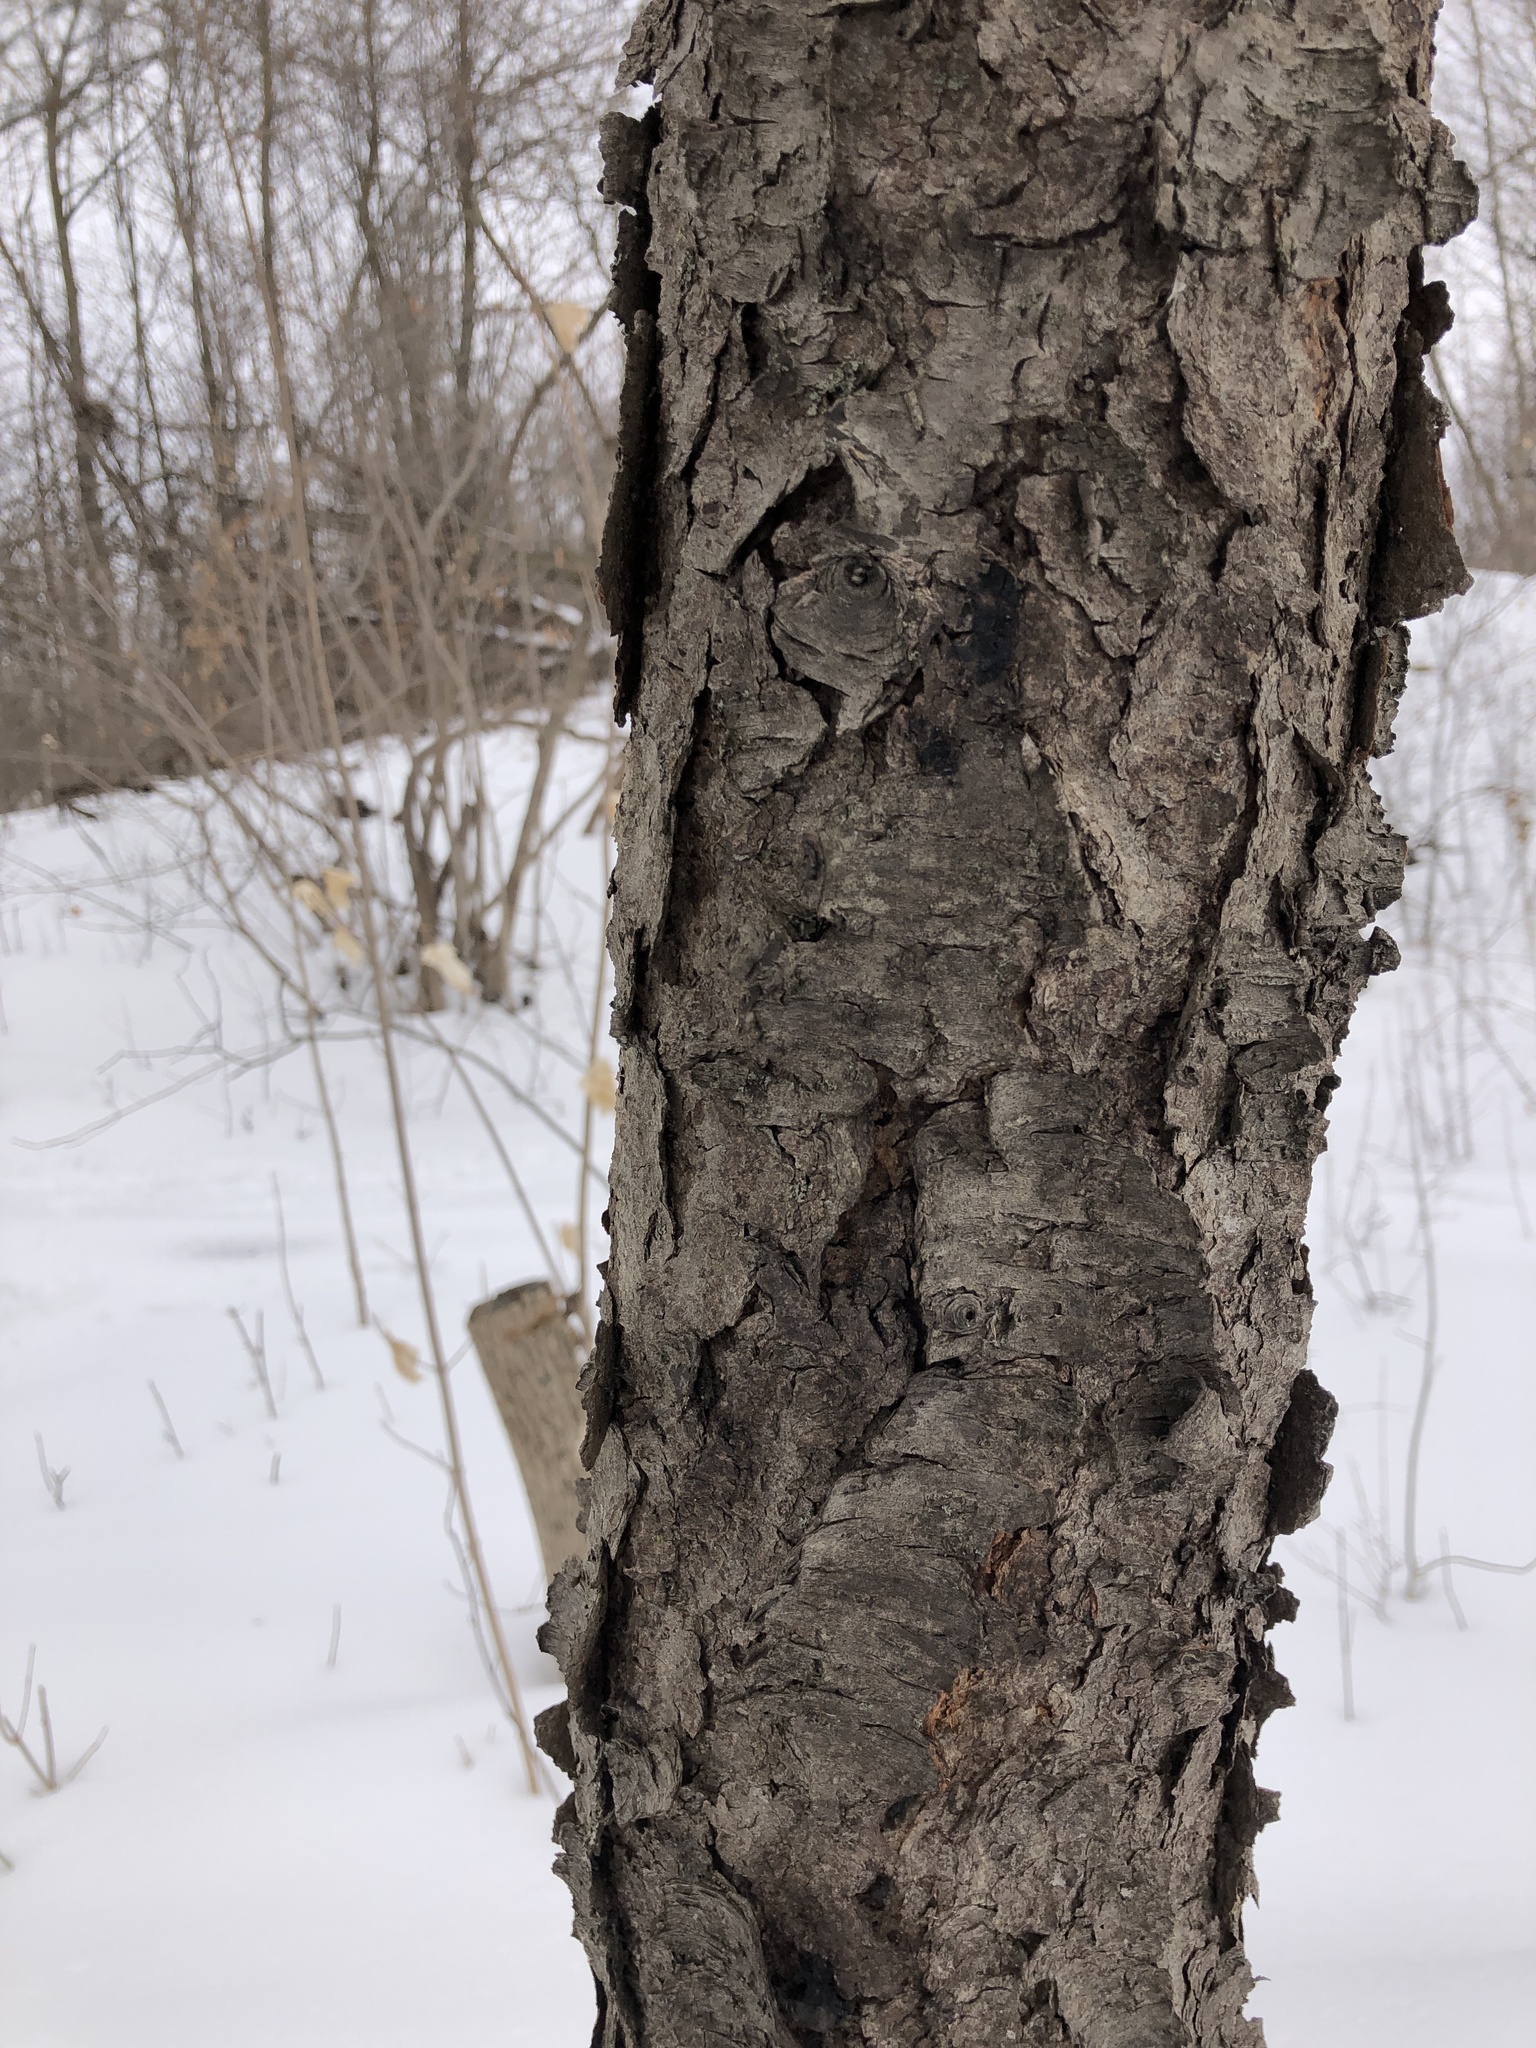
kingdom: Plantae
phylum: Tracheophyta
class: Magnoliopsida
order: Rosales
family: Rosaceae
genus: Prunus
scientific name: Prunus serotina
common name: Black cherry
